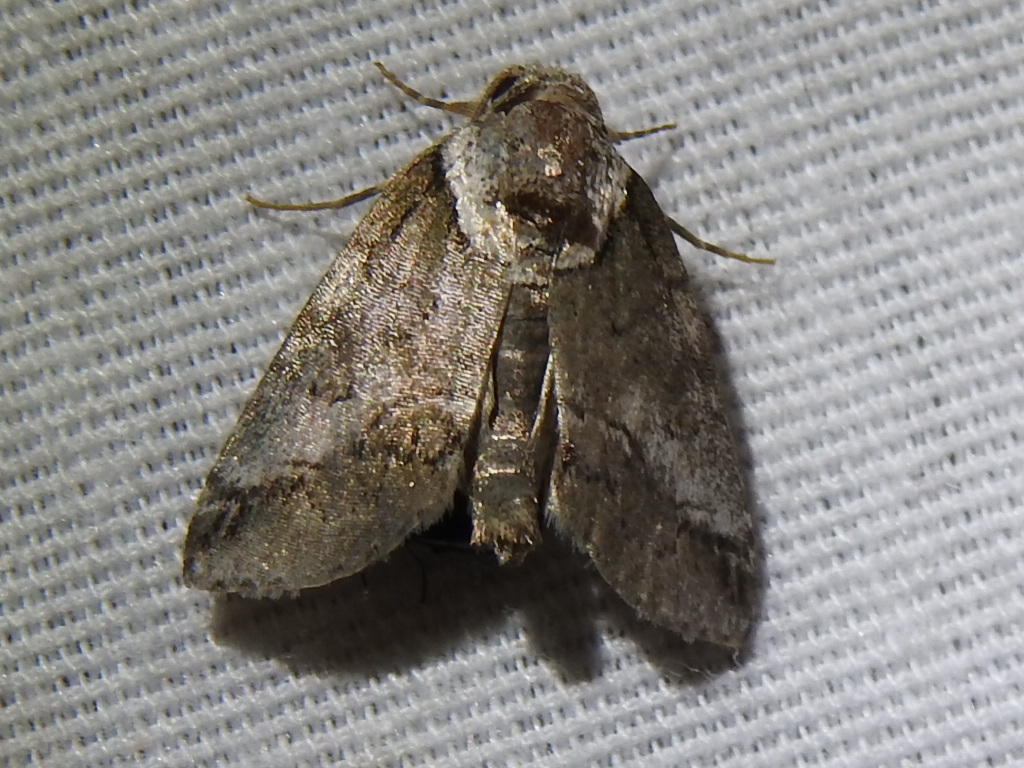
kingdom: Animalia
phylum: Arthropoda
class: Insecta
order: Lepidoptera
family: Nolidae
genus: Baileya
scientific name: Baileya australis
